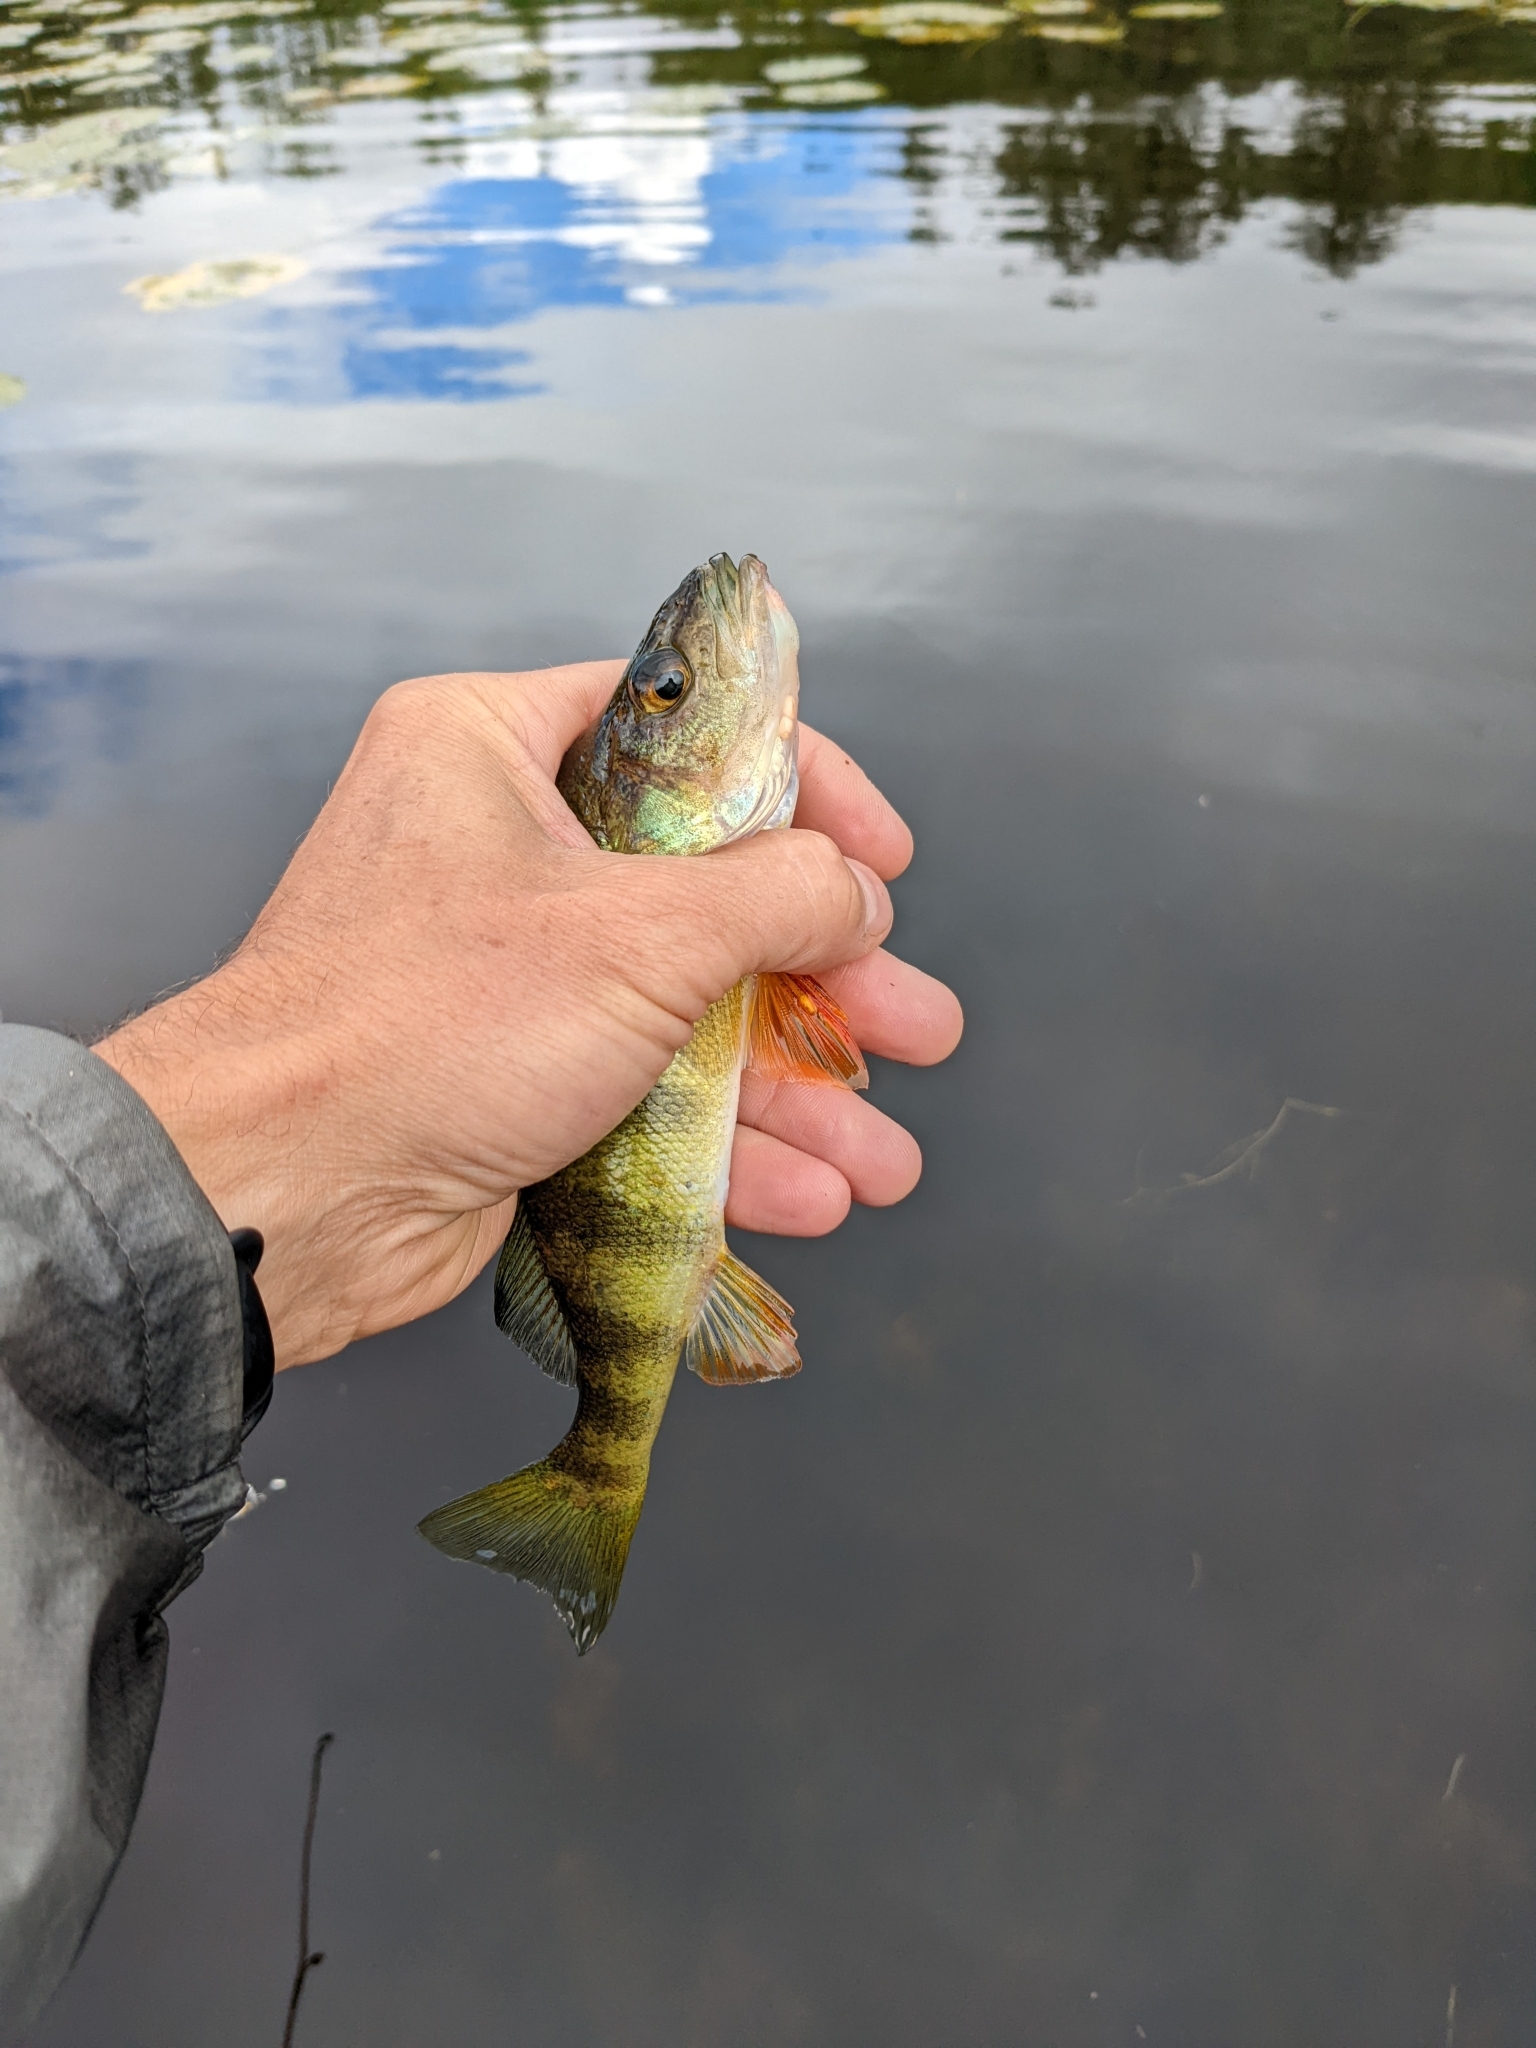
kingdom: Animalia
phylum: Chordata
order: Perciformes
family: Percidae
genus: Perca
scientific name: Perca flavescens
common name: Yellow perch
